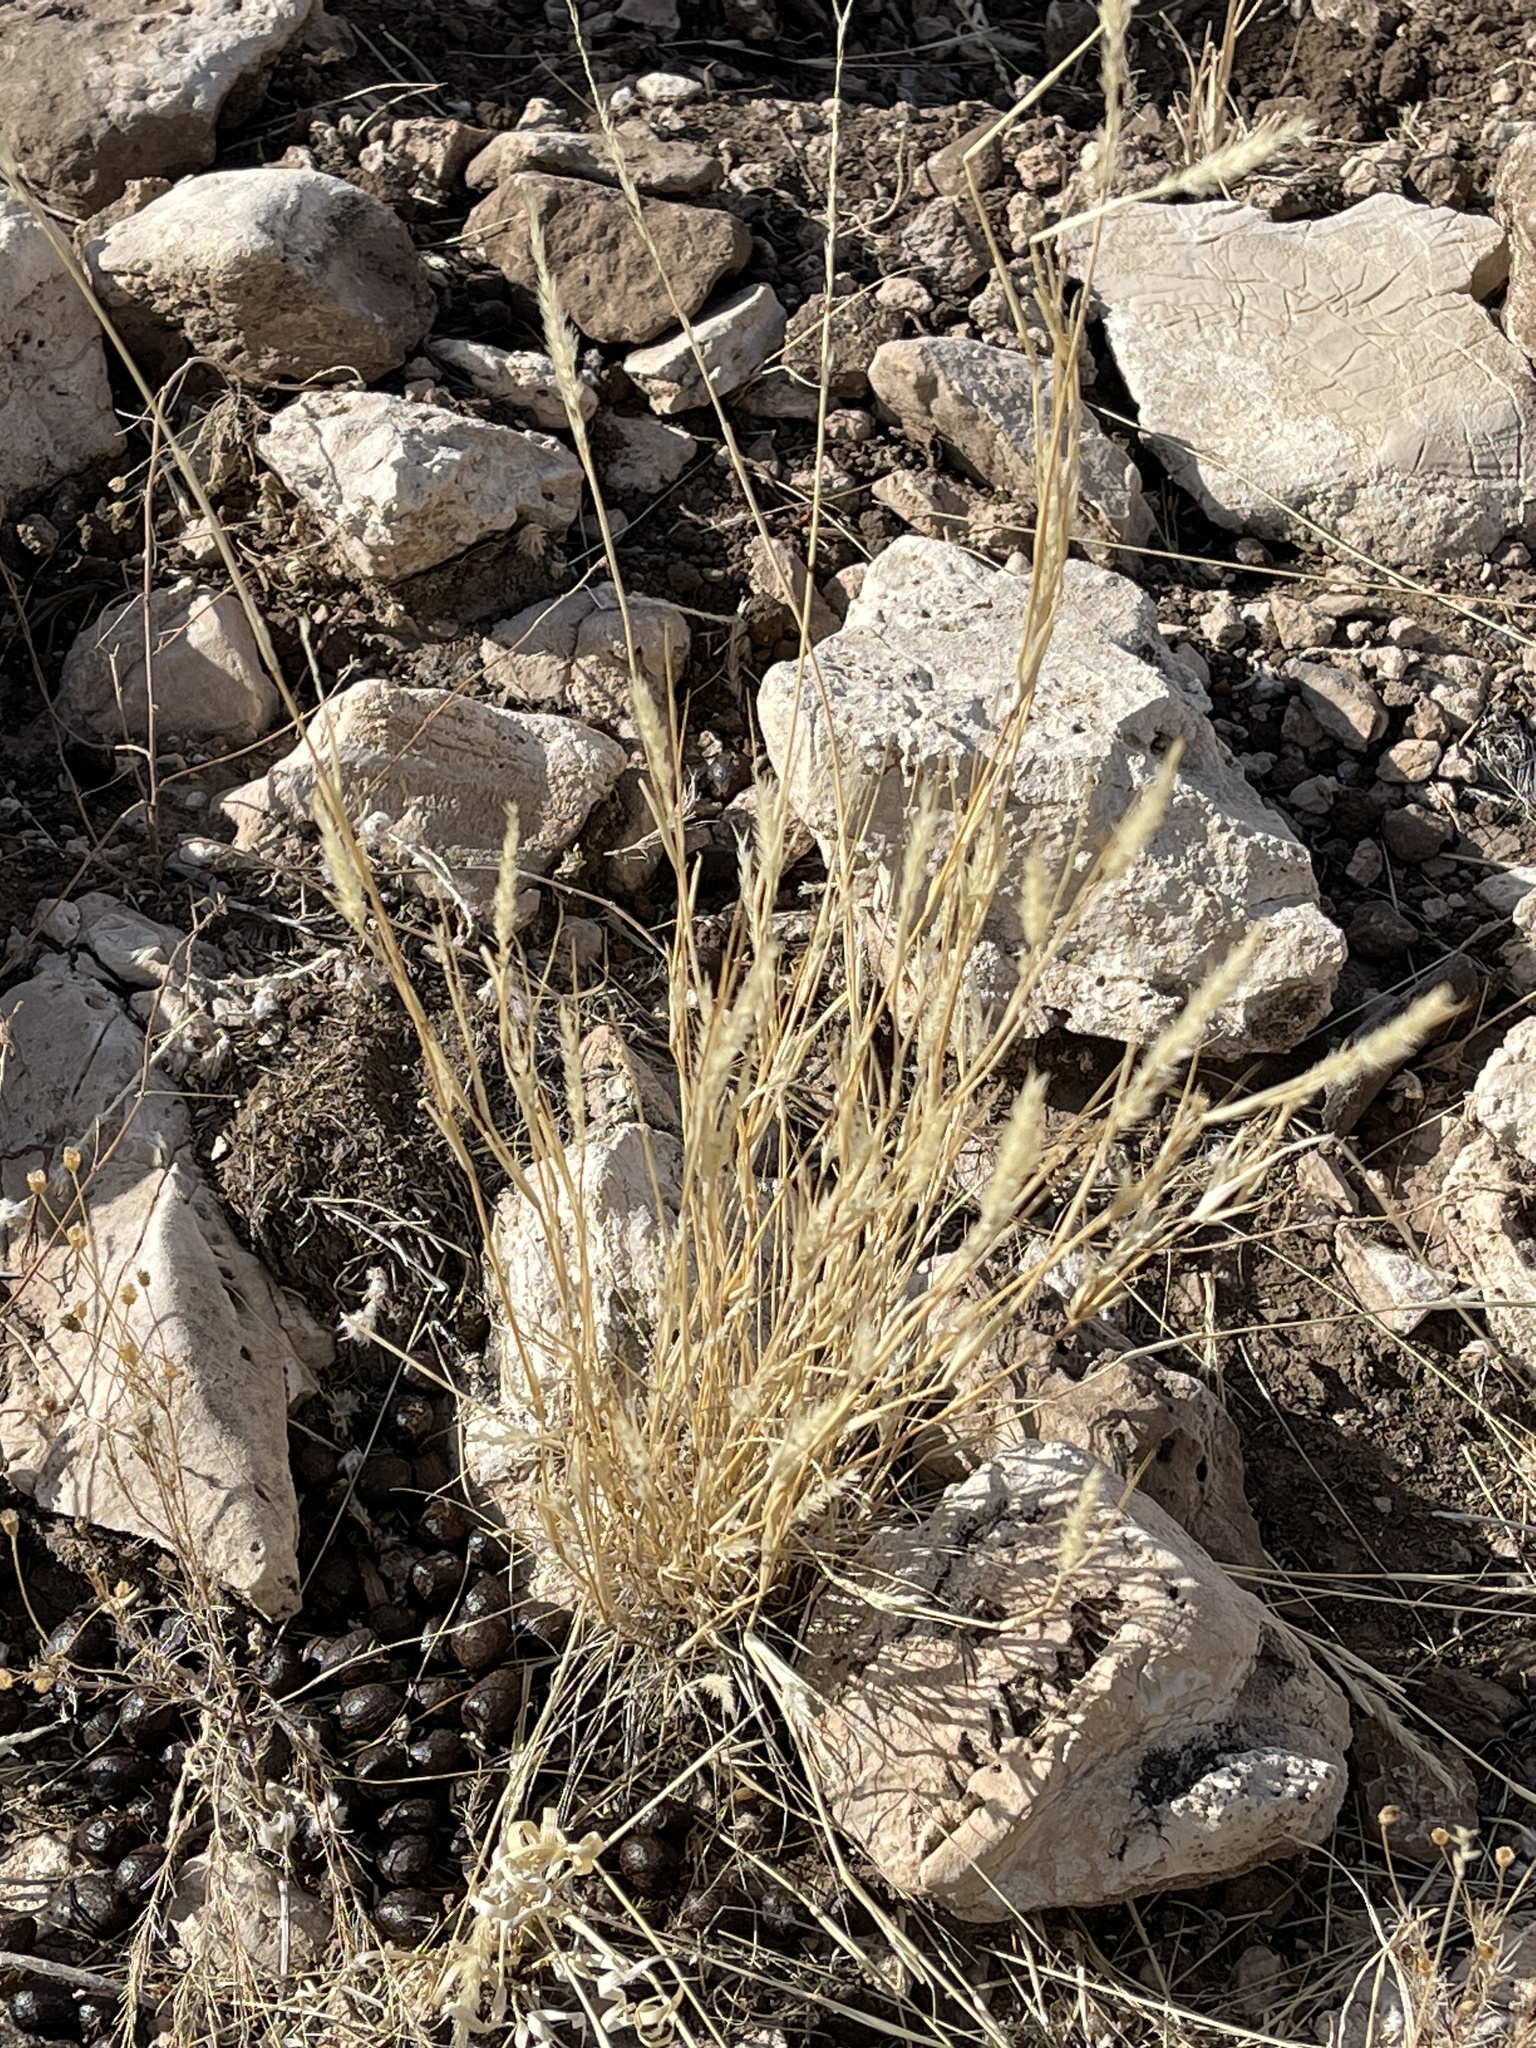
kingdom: Plantae
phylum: Tracheophyta
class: Liliopsida
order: Poales
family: Poaceae
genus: Enneapogon
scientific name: Enneapogon desvauxii
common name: Feather pappus grass
